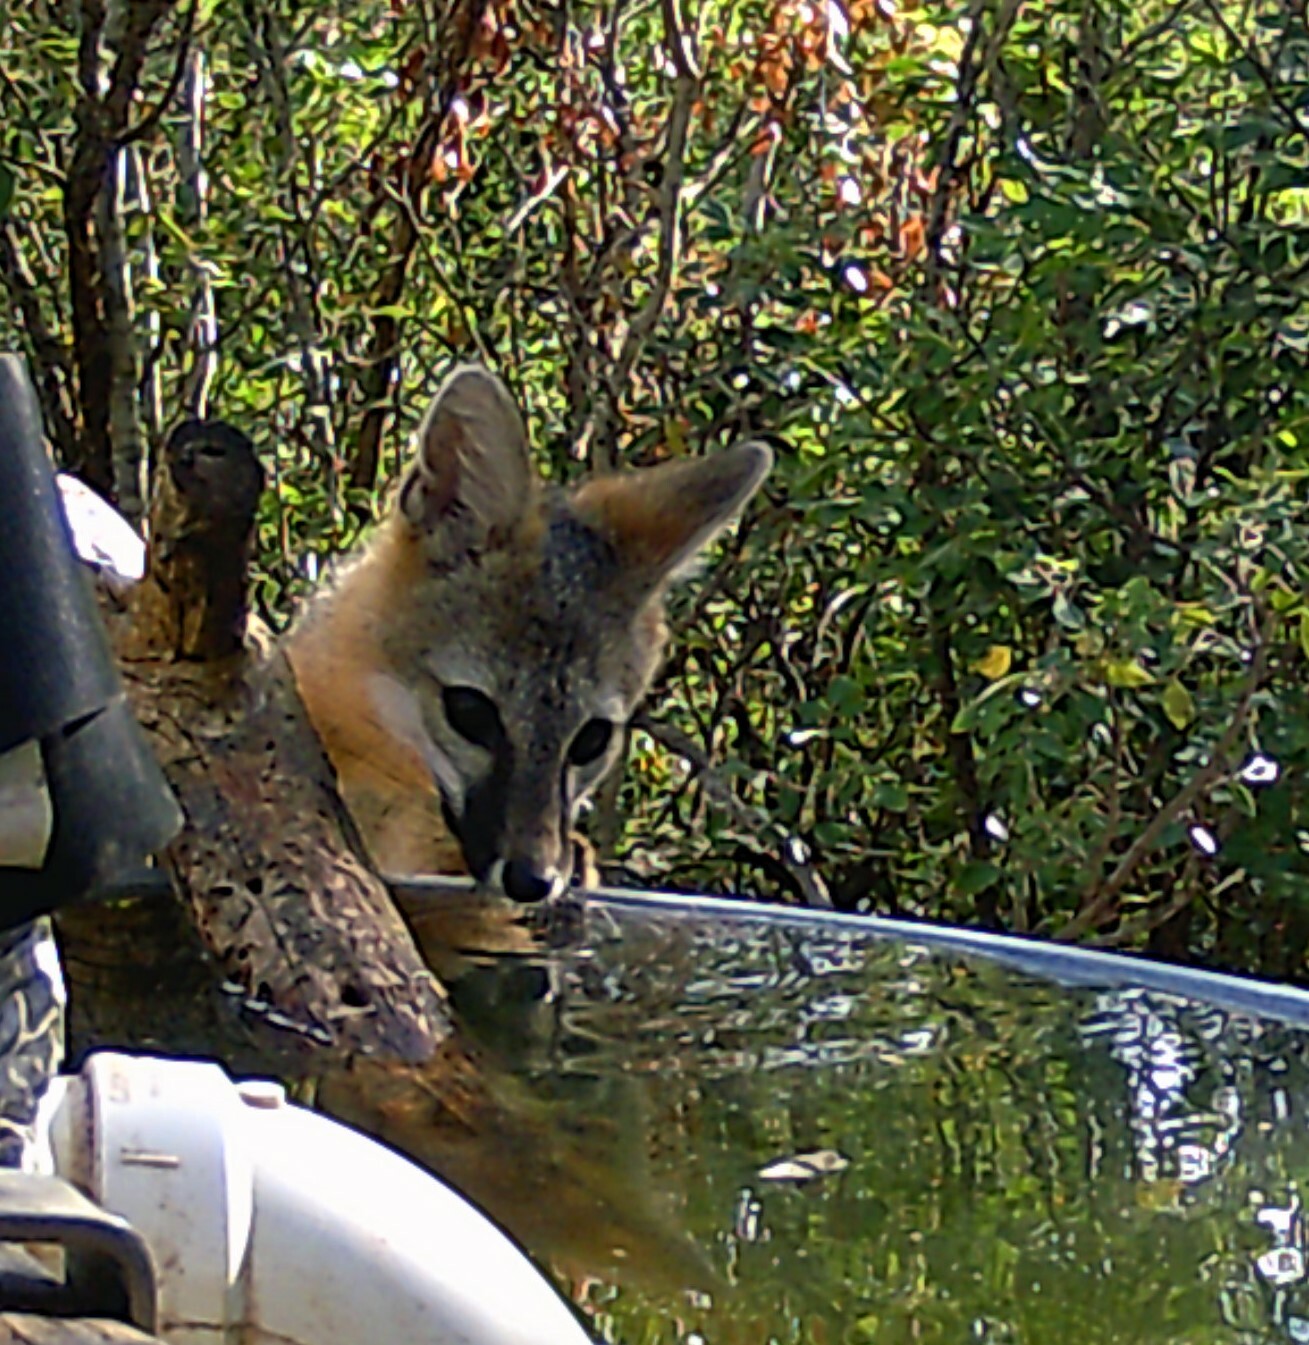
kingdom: Animalia
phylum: Chordata
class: Mammalia
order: Carnivora
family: Canidae
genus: Urocyon
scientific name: Urocyon cinereoargenteus
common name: Gray fox
